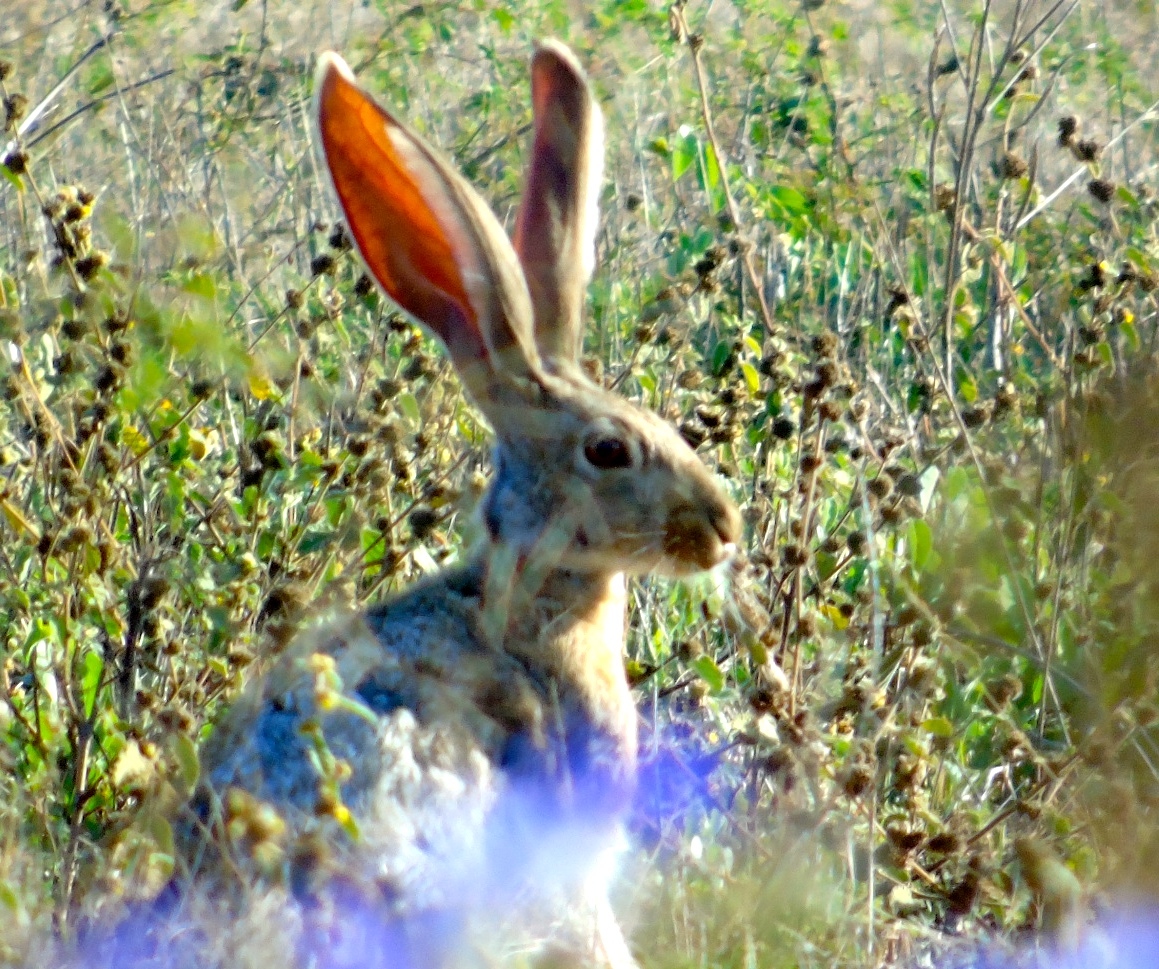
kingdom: Animalia
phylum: Chordata
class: Mammalia
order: Lagomorpha
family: Leporidae
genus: Lepus
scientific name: Lepus alleni
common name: Antelope jackrabbit
